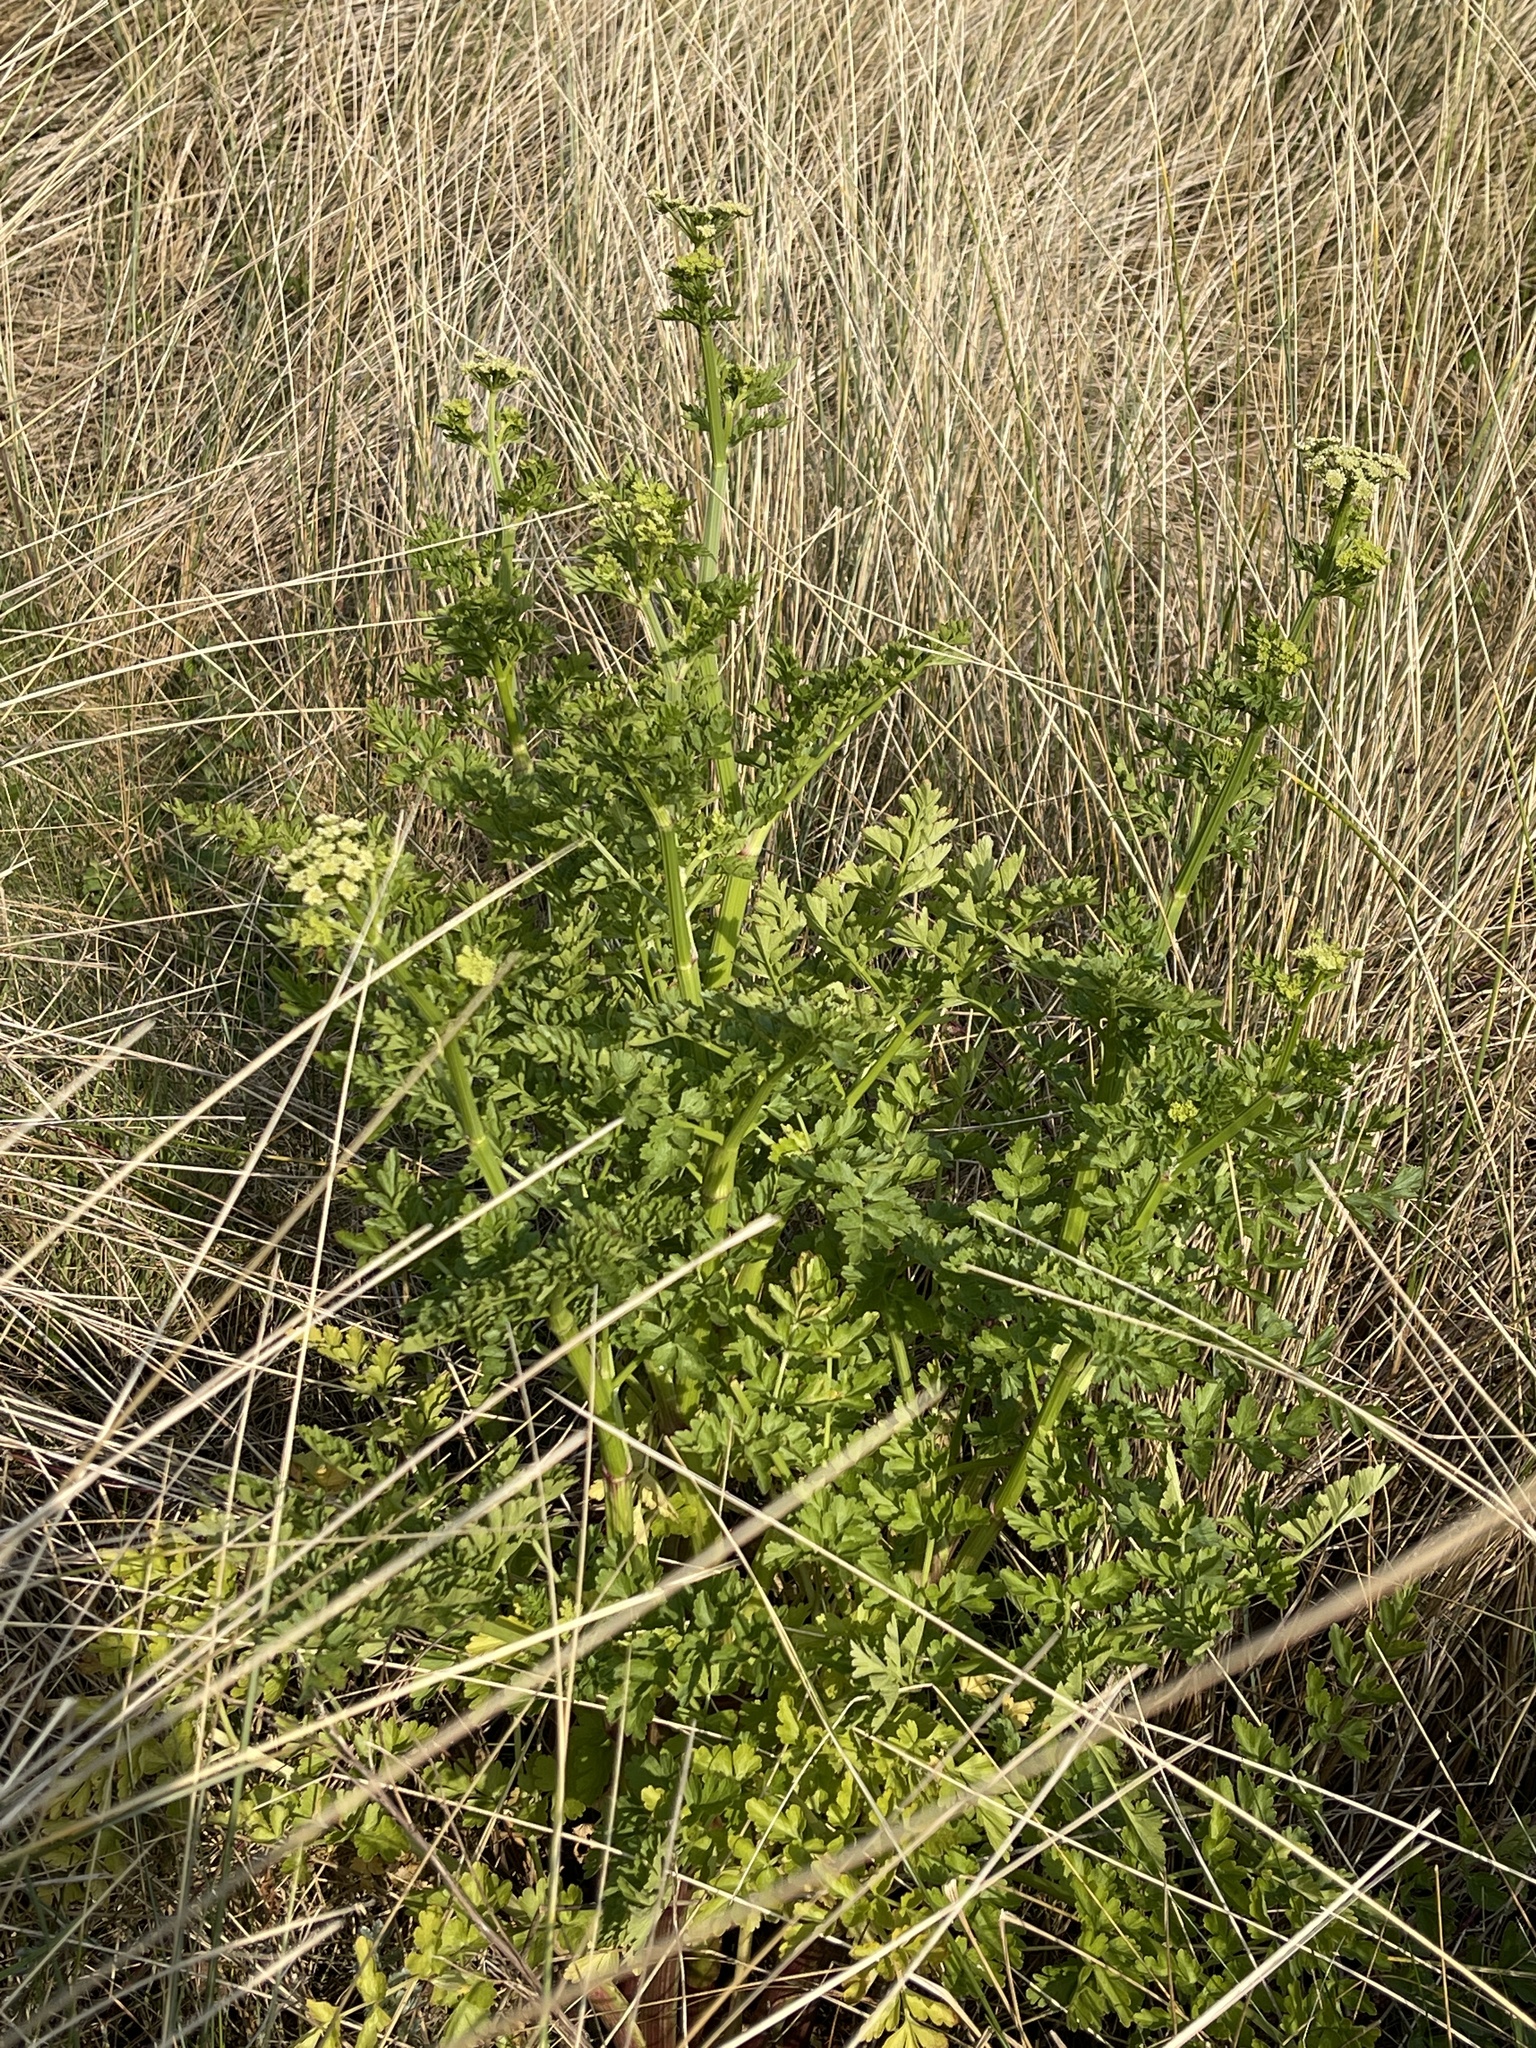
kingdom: Plantae
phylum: Tracheophyta
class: Magnoliopsida
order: Apiales
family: Apiaceae
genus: Oenanthe
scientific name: Oenanthe crocata
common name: Hemlock water-dropwort
